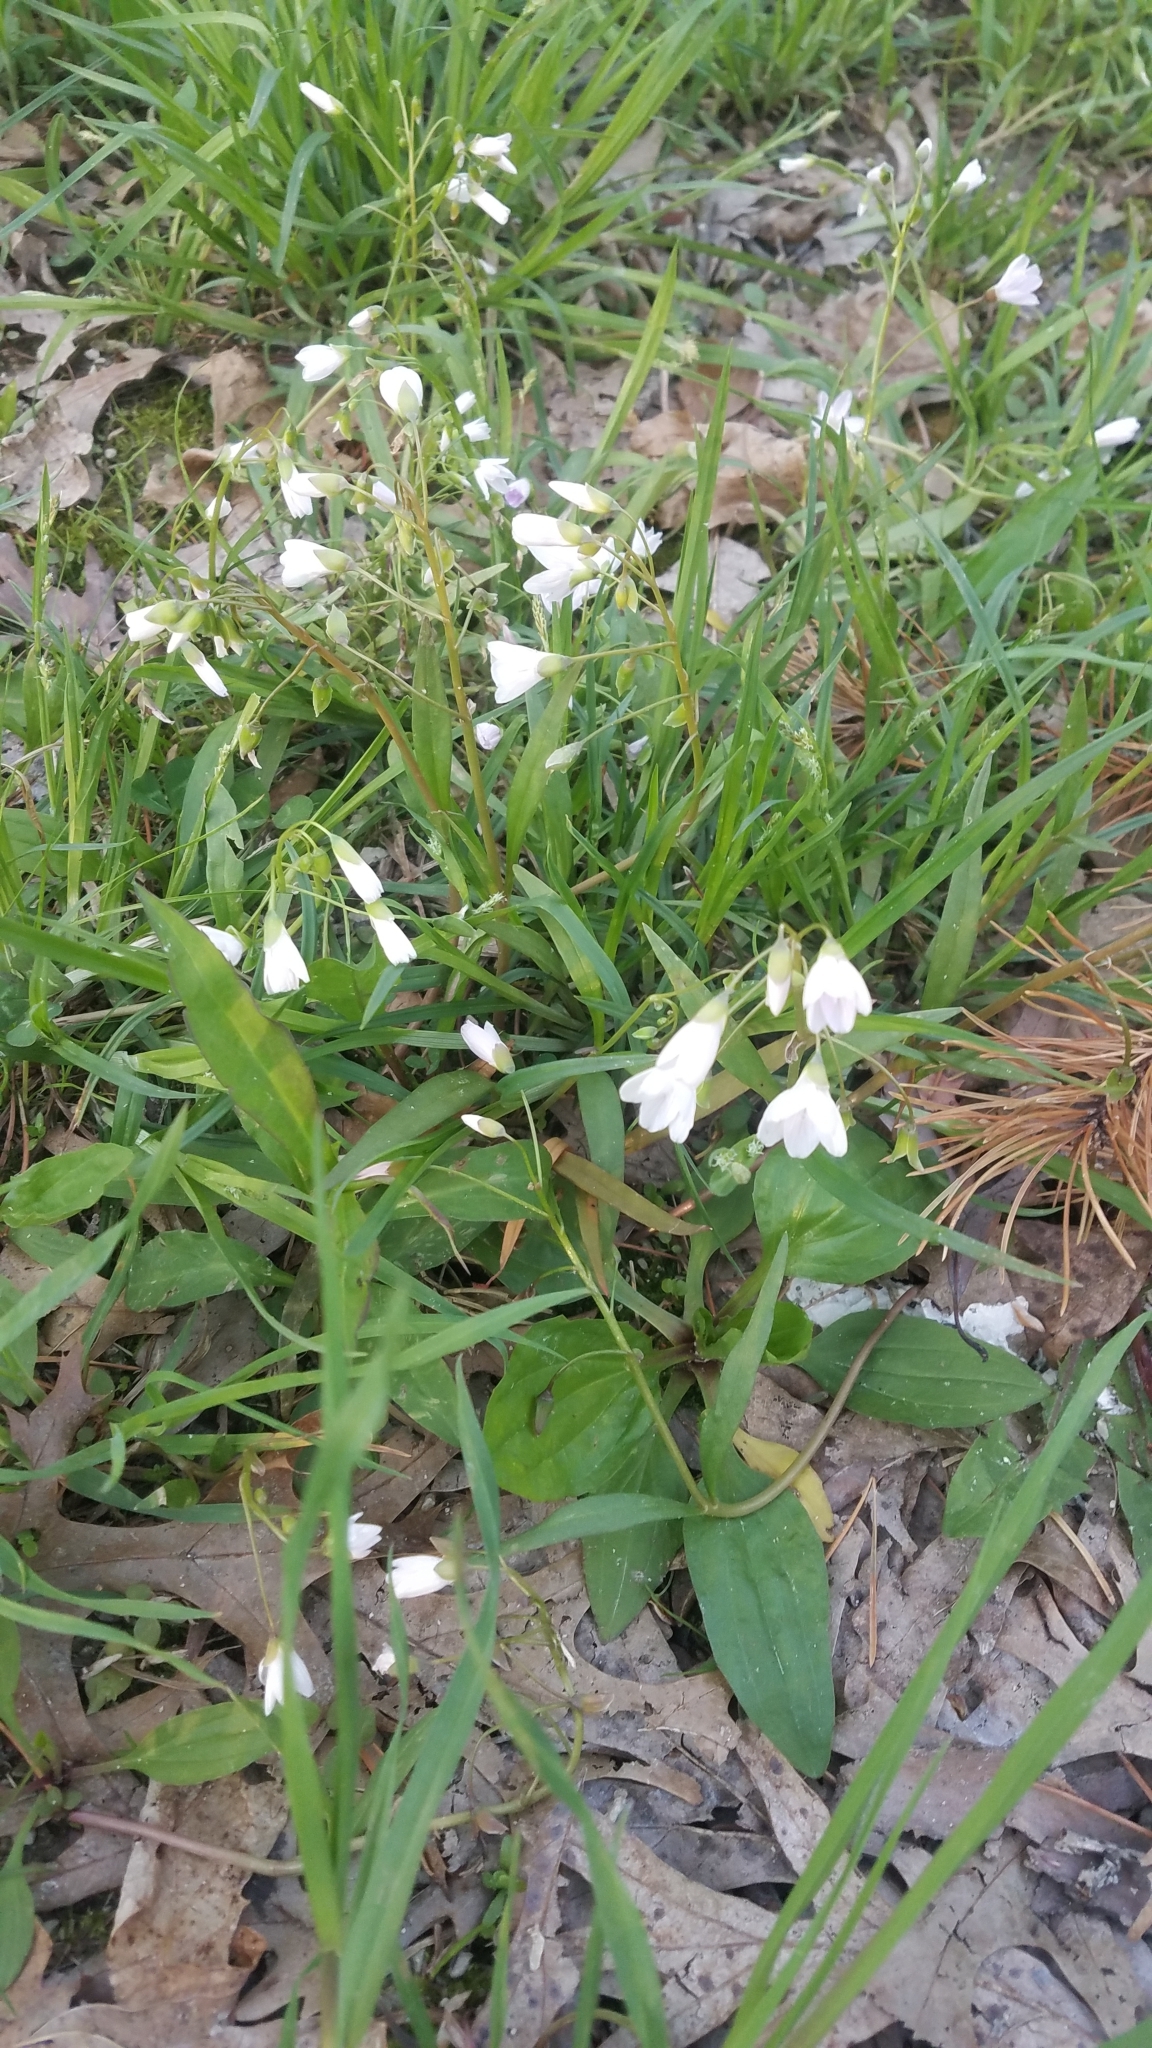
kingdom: Plantae
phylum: Tracheophyta
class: Magnoliopsida
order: Caryophyllales
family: Montiaceae
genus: Claytonia
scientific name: Claytonia virginica
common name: Virginia springbeauty
